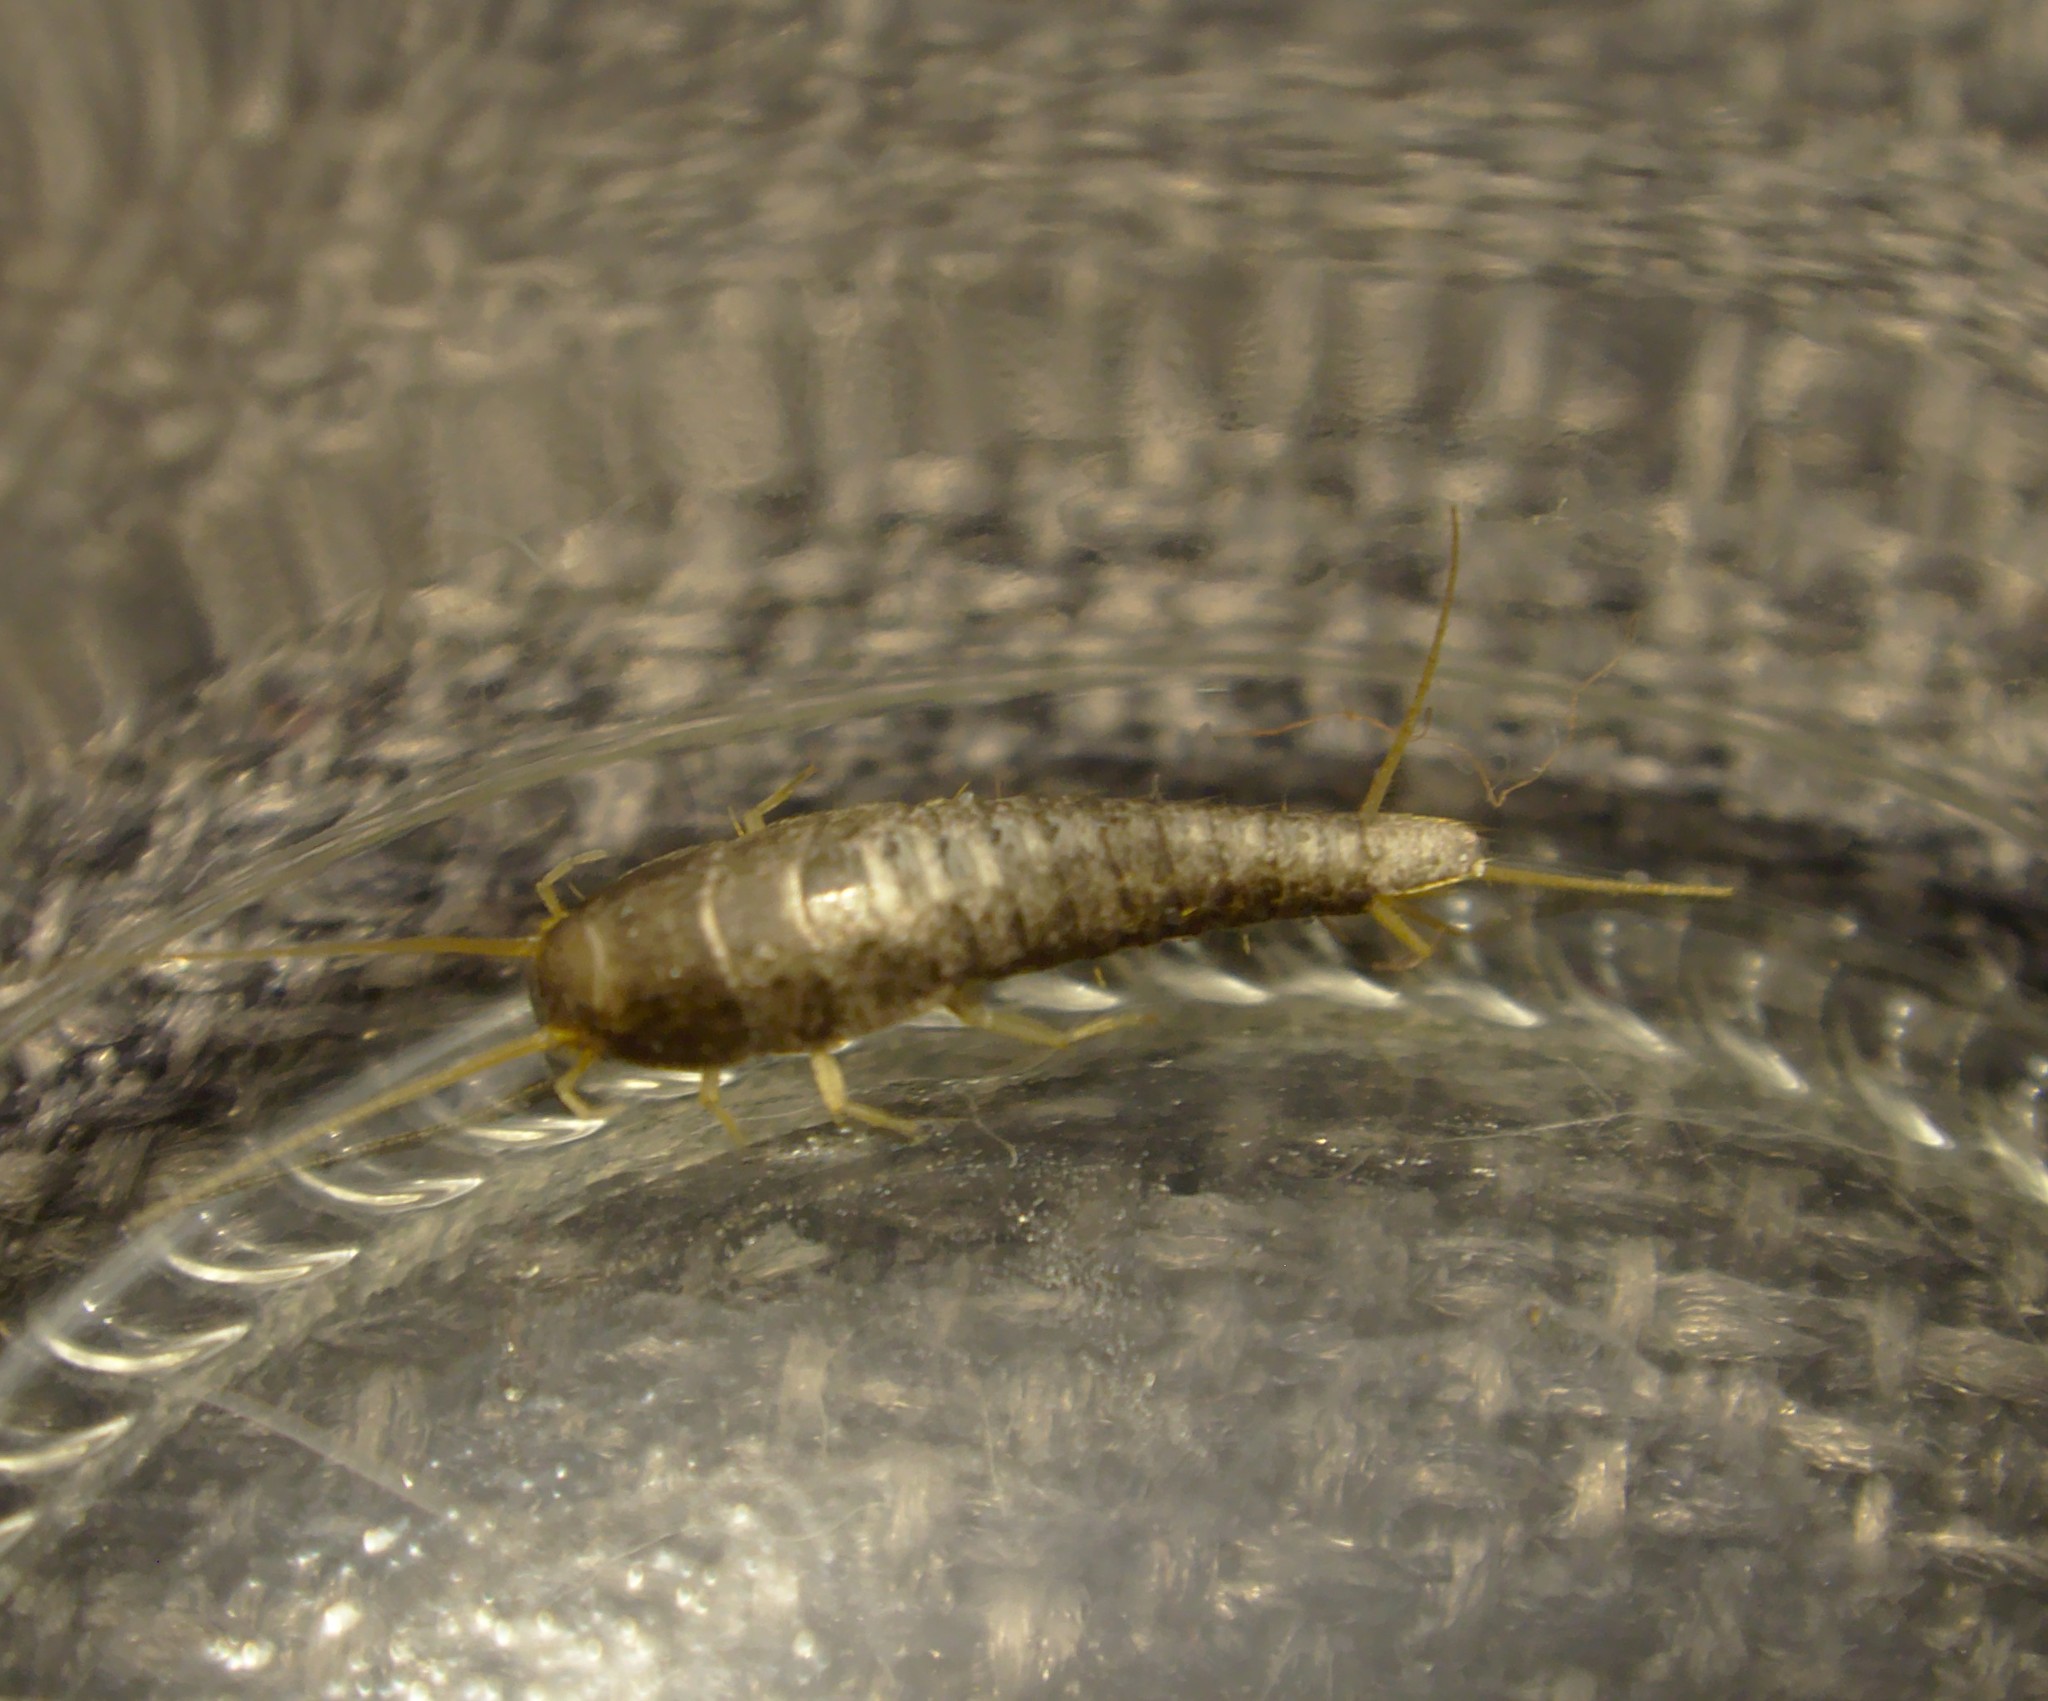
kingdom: Animalia
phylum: Arthropoda
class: Insecta
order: Zygentoma
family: Lepismatidae
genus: Lepisma
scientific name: Lepisma saccharinum
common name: Silverfish
